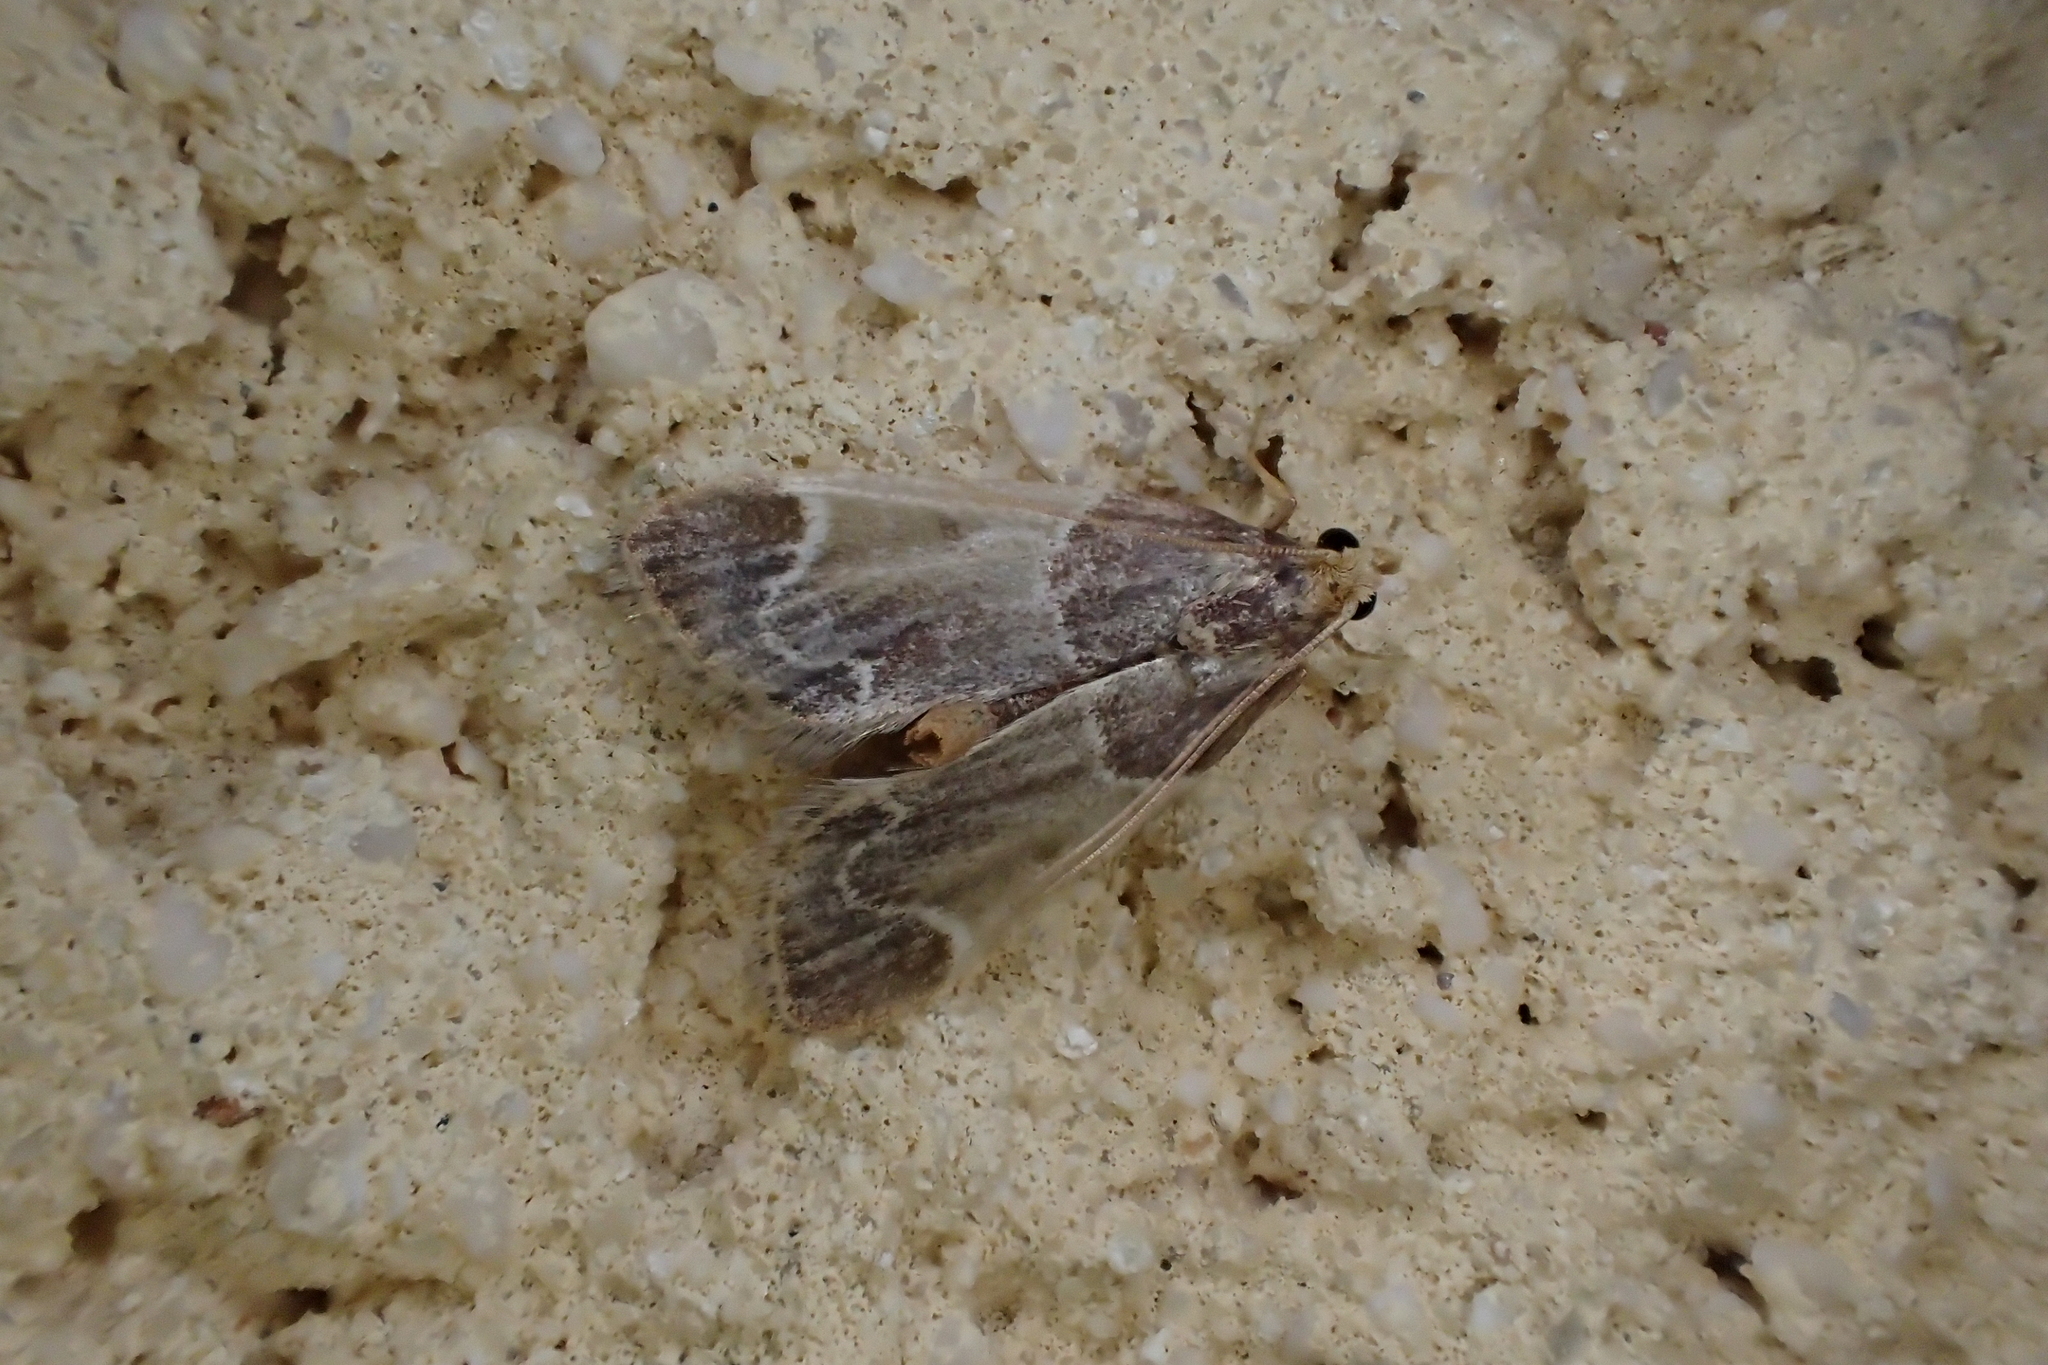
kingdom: Animalia
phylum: Arthropoda
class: Insecta
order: Lepidoptera
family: Pyralidae
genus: Pyralis
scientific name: Pyralis farinalis
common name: Meal moth
